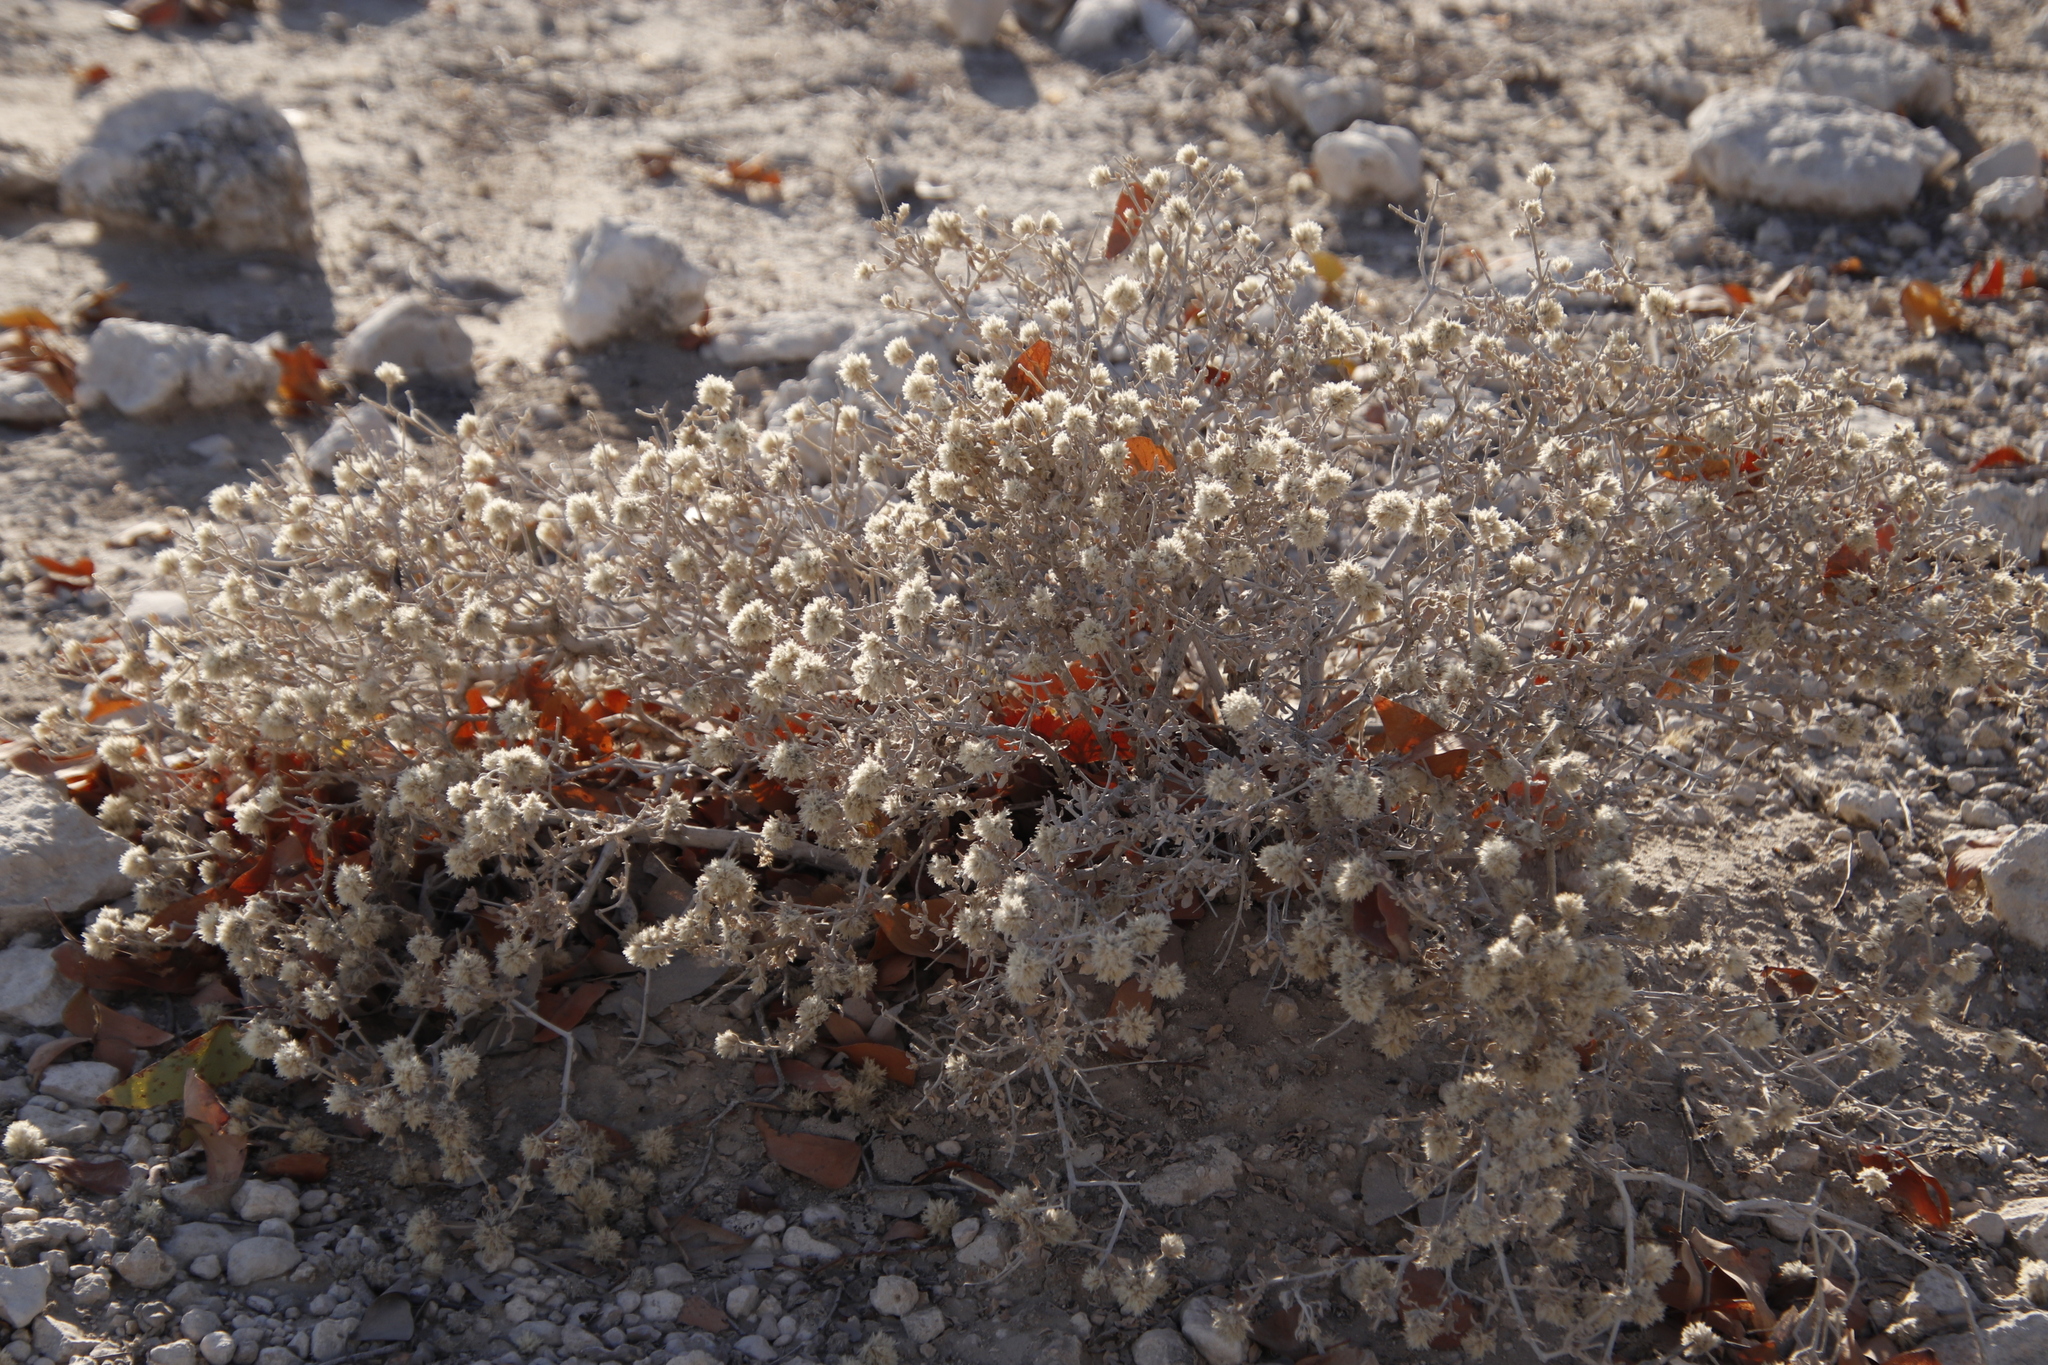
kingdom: Plantae
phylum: Tracheophyta
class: Magnoliopsida
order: Caryophyllales
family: Amaranthaceae
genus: Leucosphaera
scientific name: Leucosphaera bainesii
